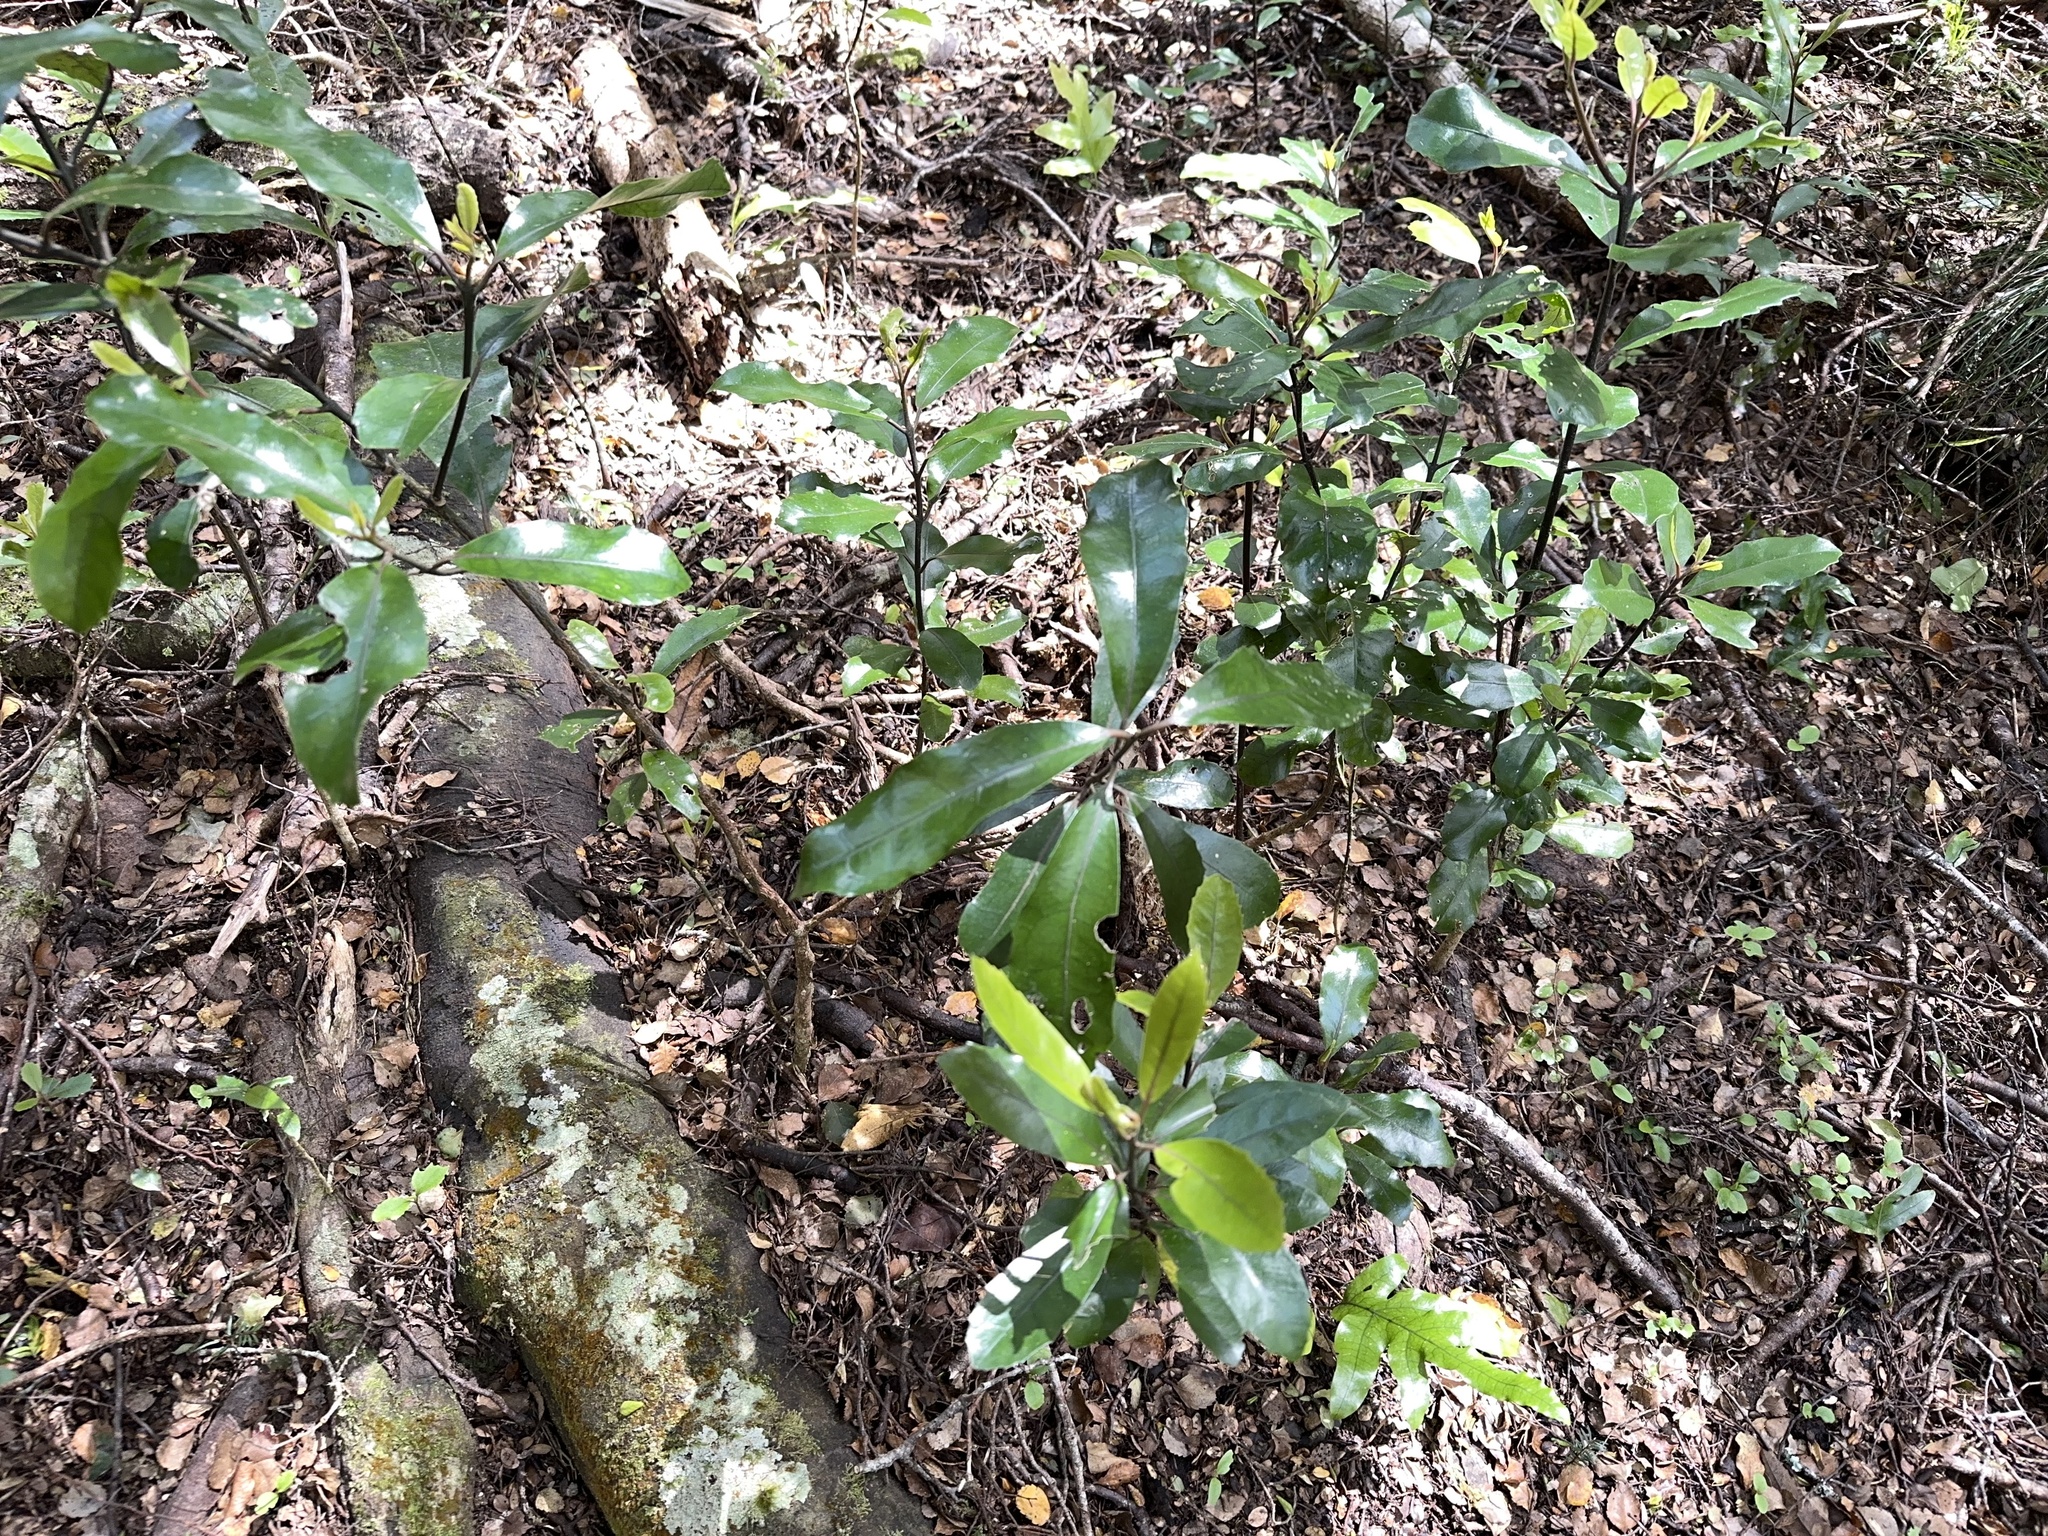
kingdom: Plantae
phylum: Tracheophyta
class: Magnoliopsida
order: Laurales
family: Monimiaceae
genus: Hedycarya
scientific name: Hedycarya arborea
